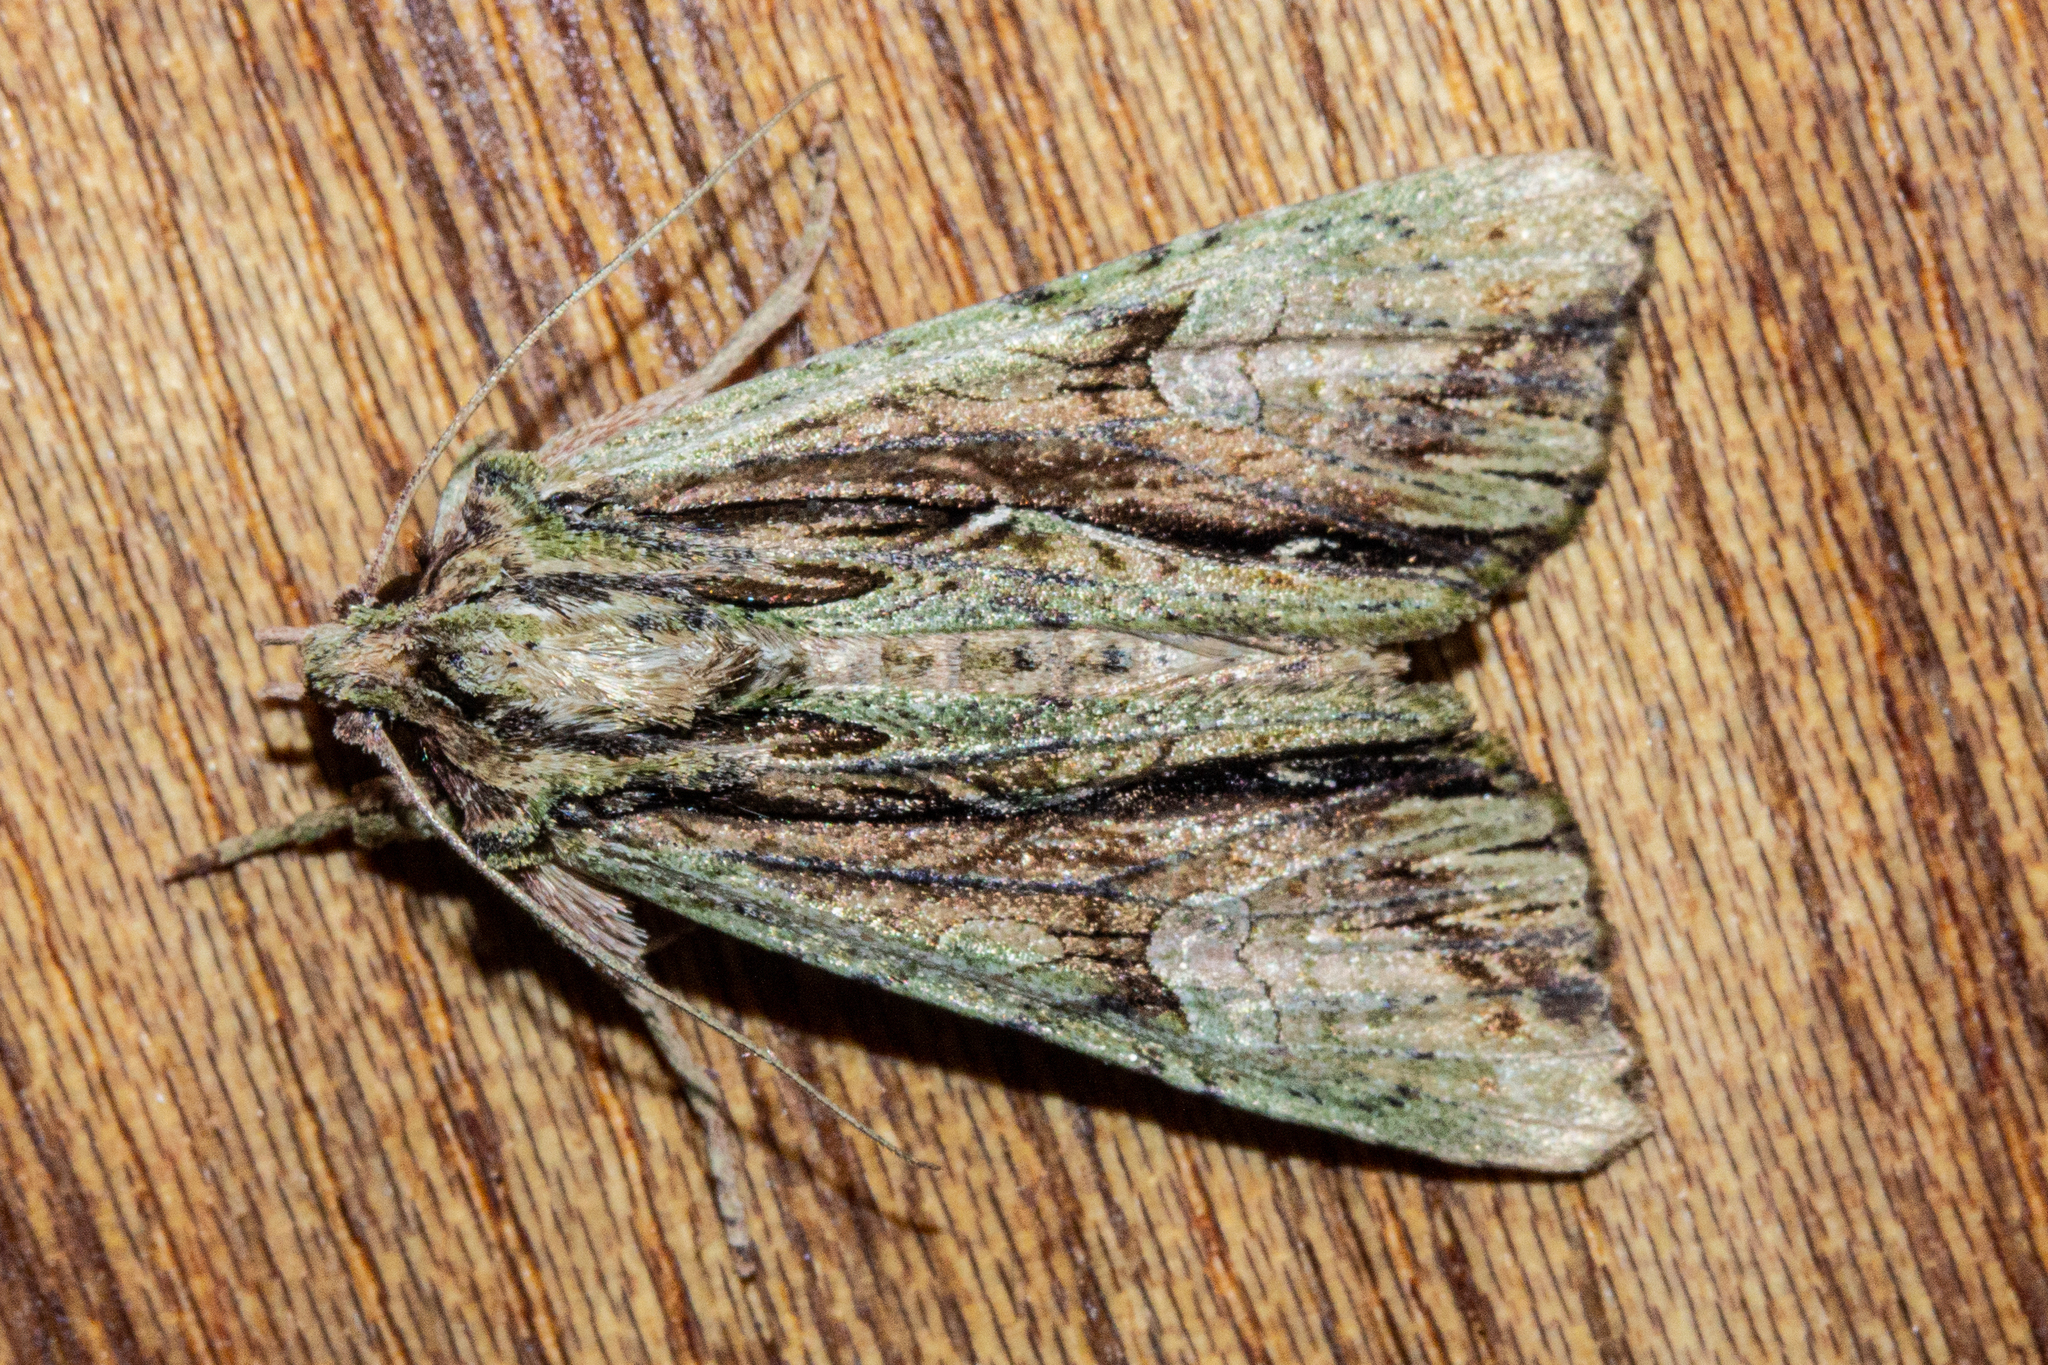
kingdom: Animalia
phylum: Arthropoda
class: Insecta
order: Lepidoptera
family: Noctuidae
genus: Meterana
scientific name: Meterana decorata
